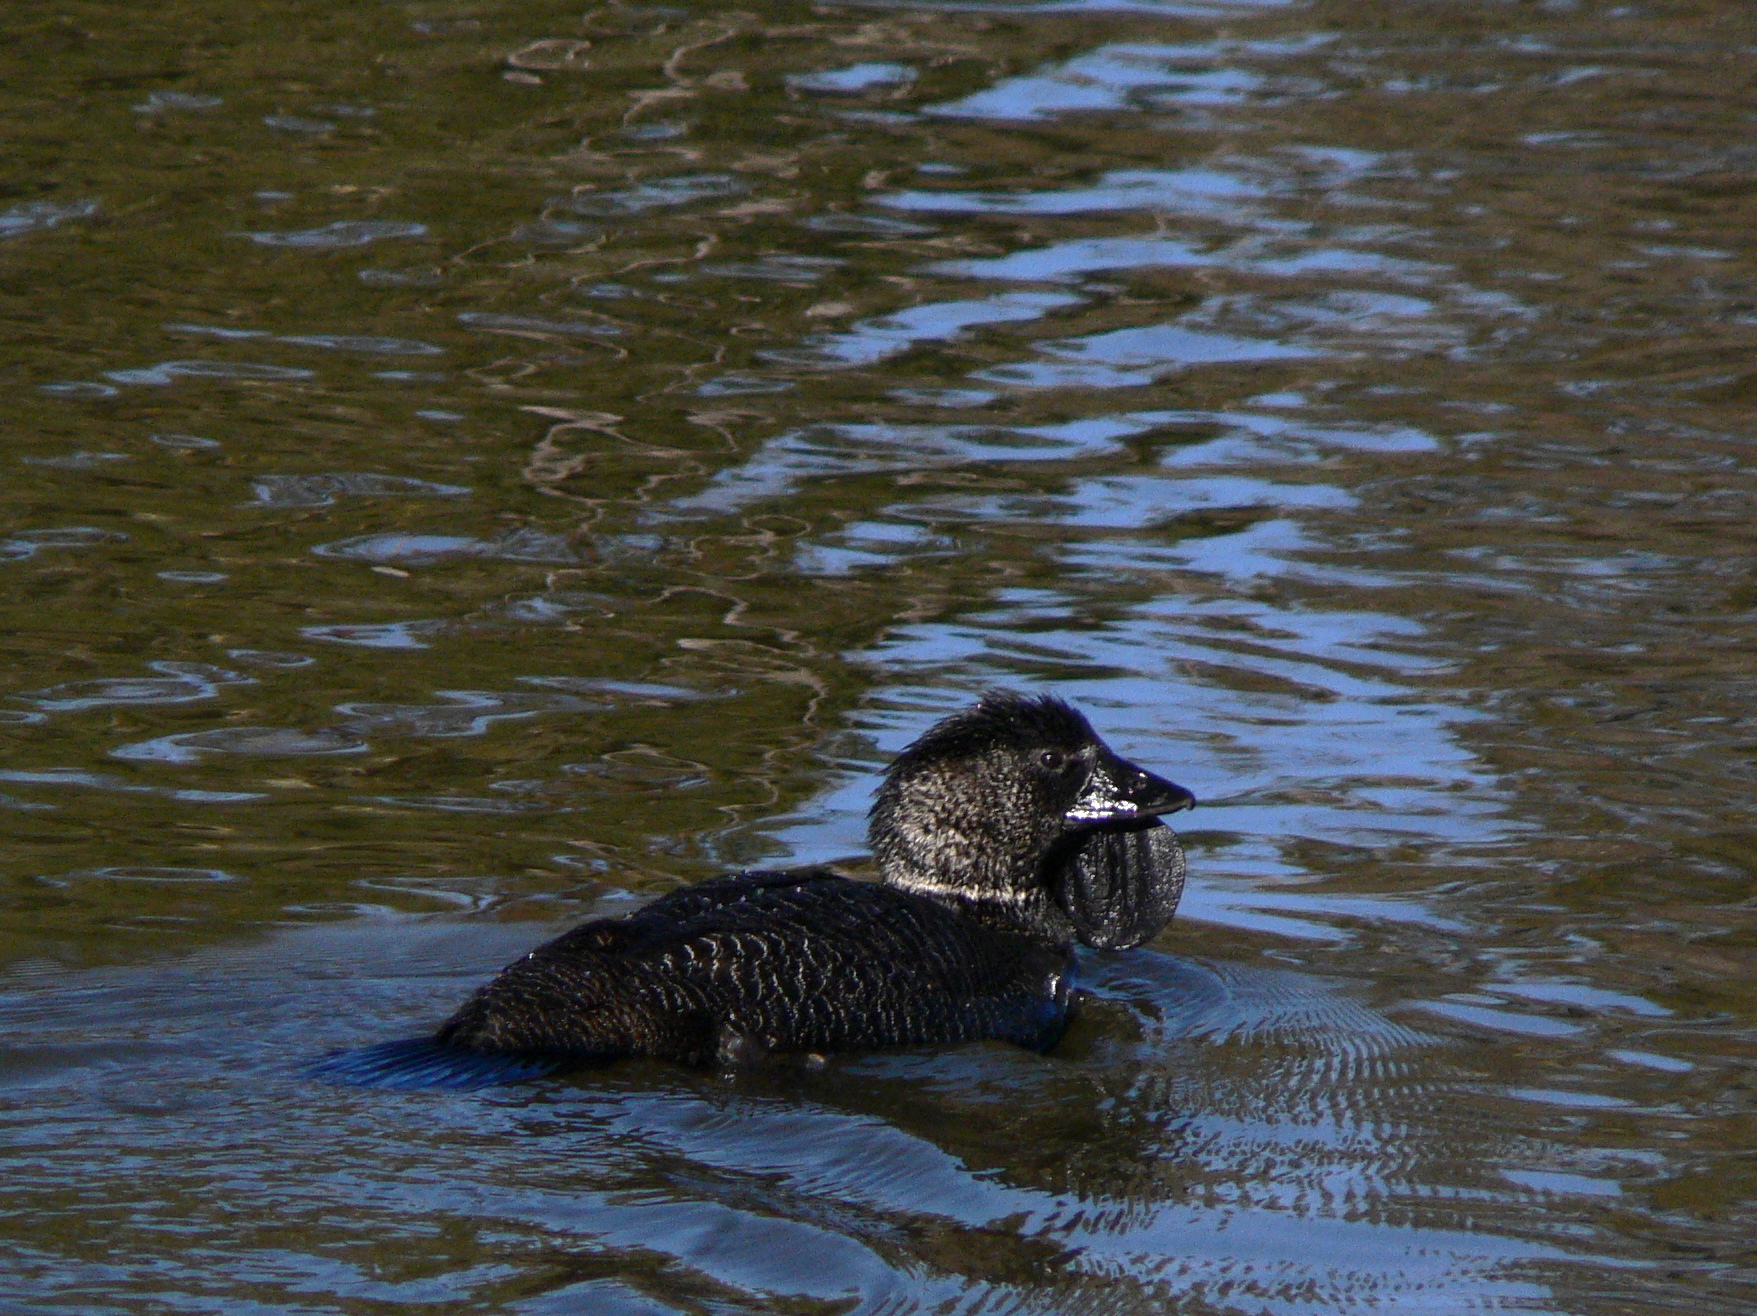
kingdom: Animalia
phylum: Chordata
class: Aves
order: Anseriformes
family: Anatidae
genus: Biziura
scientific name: Biziura lobata
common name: Musk duck
